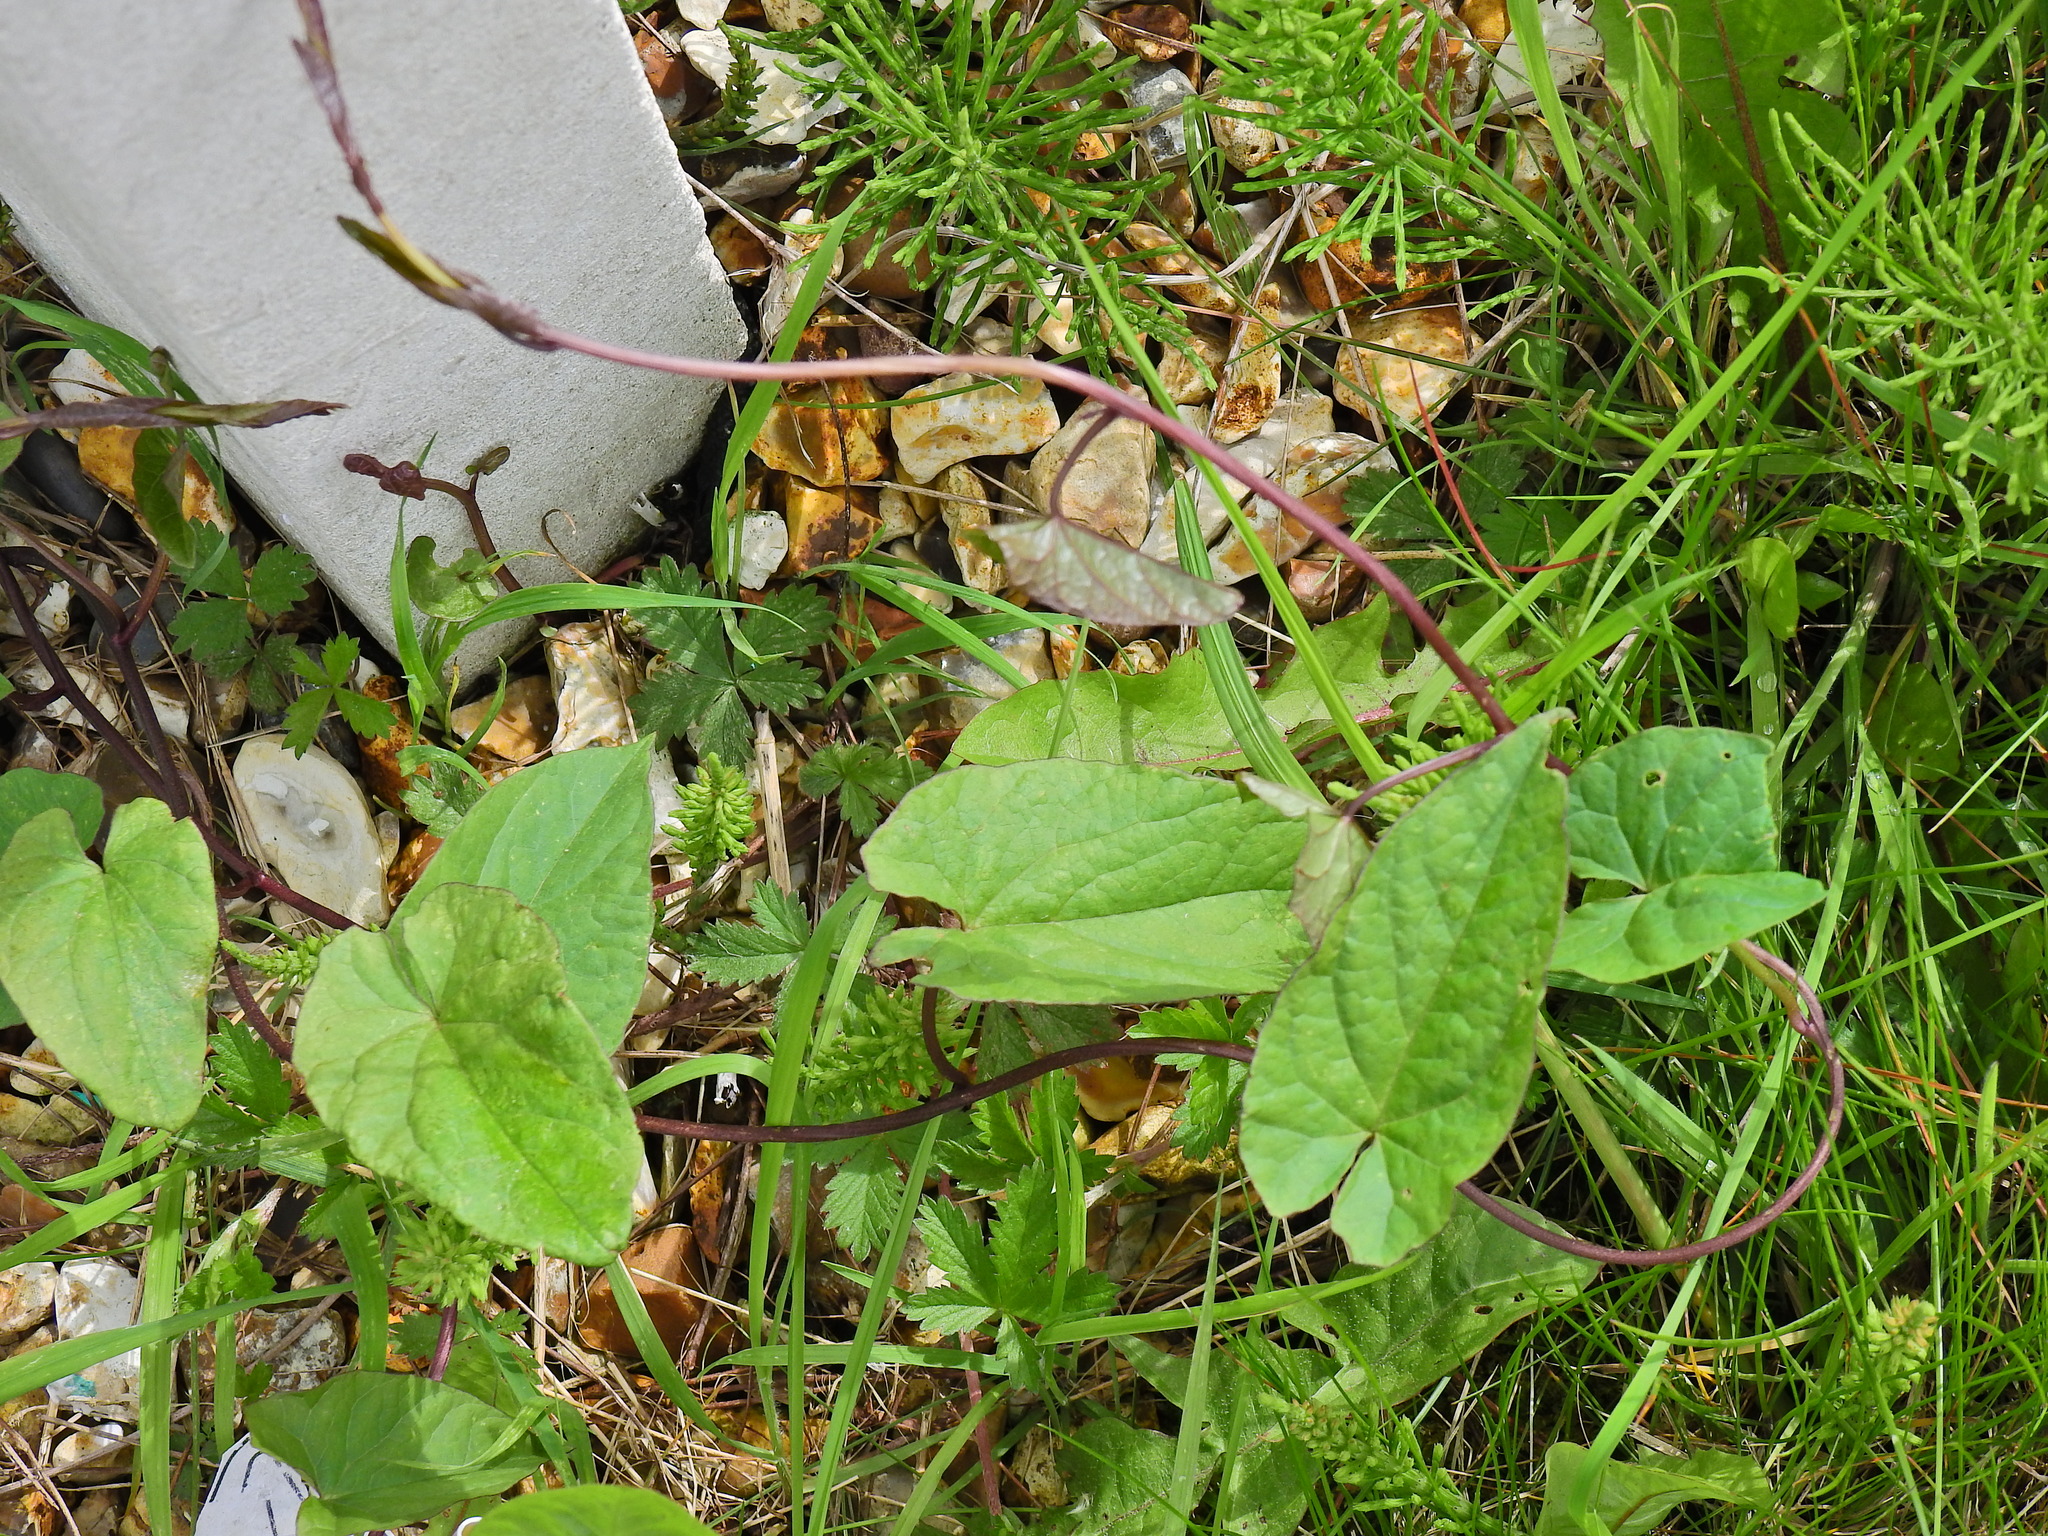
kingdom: Plantae
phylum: Tracheophyta
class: Magnoliopsida
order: Solanales
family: Convolvulaceae
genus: Calystegia
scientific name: Calystegia
